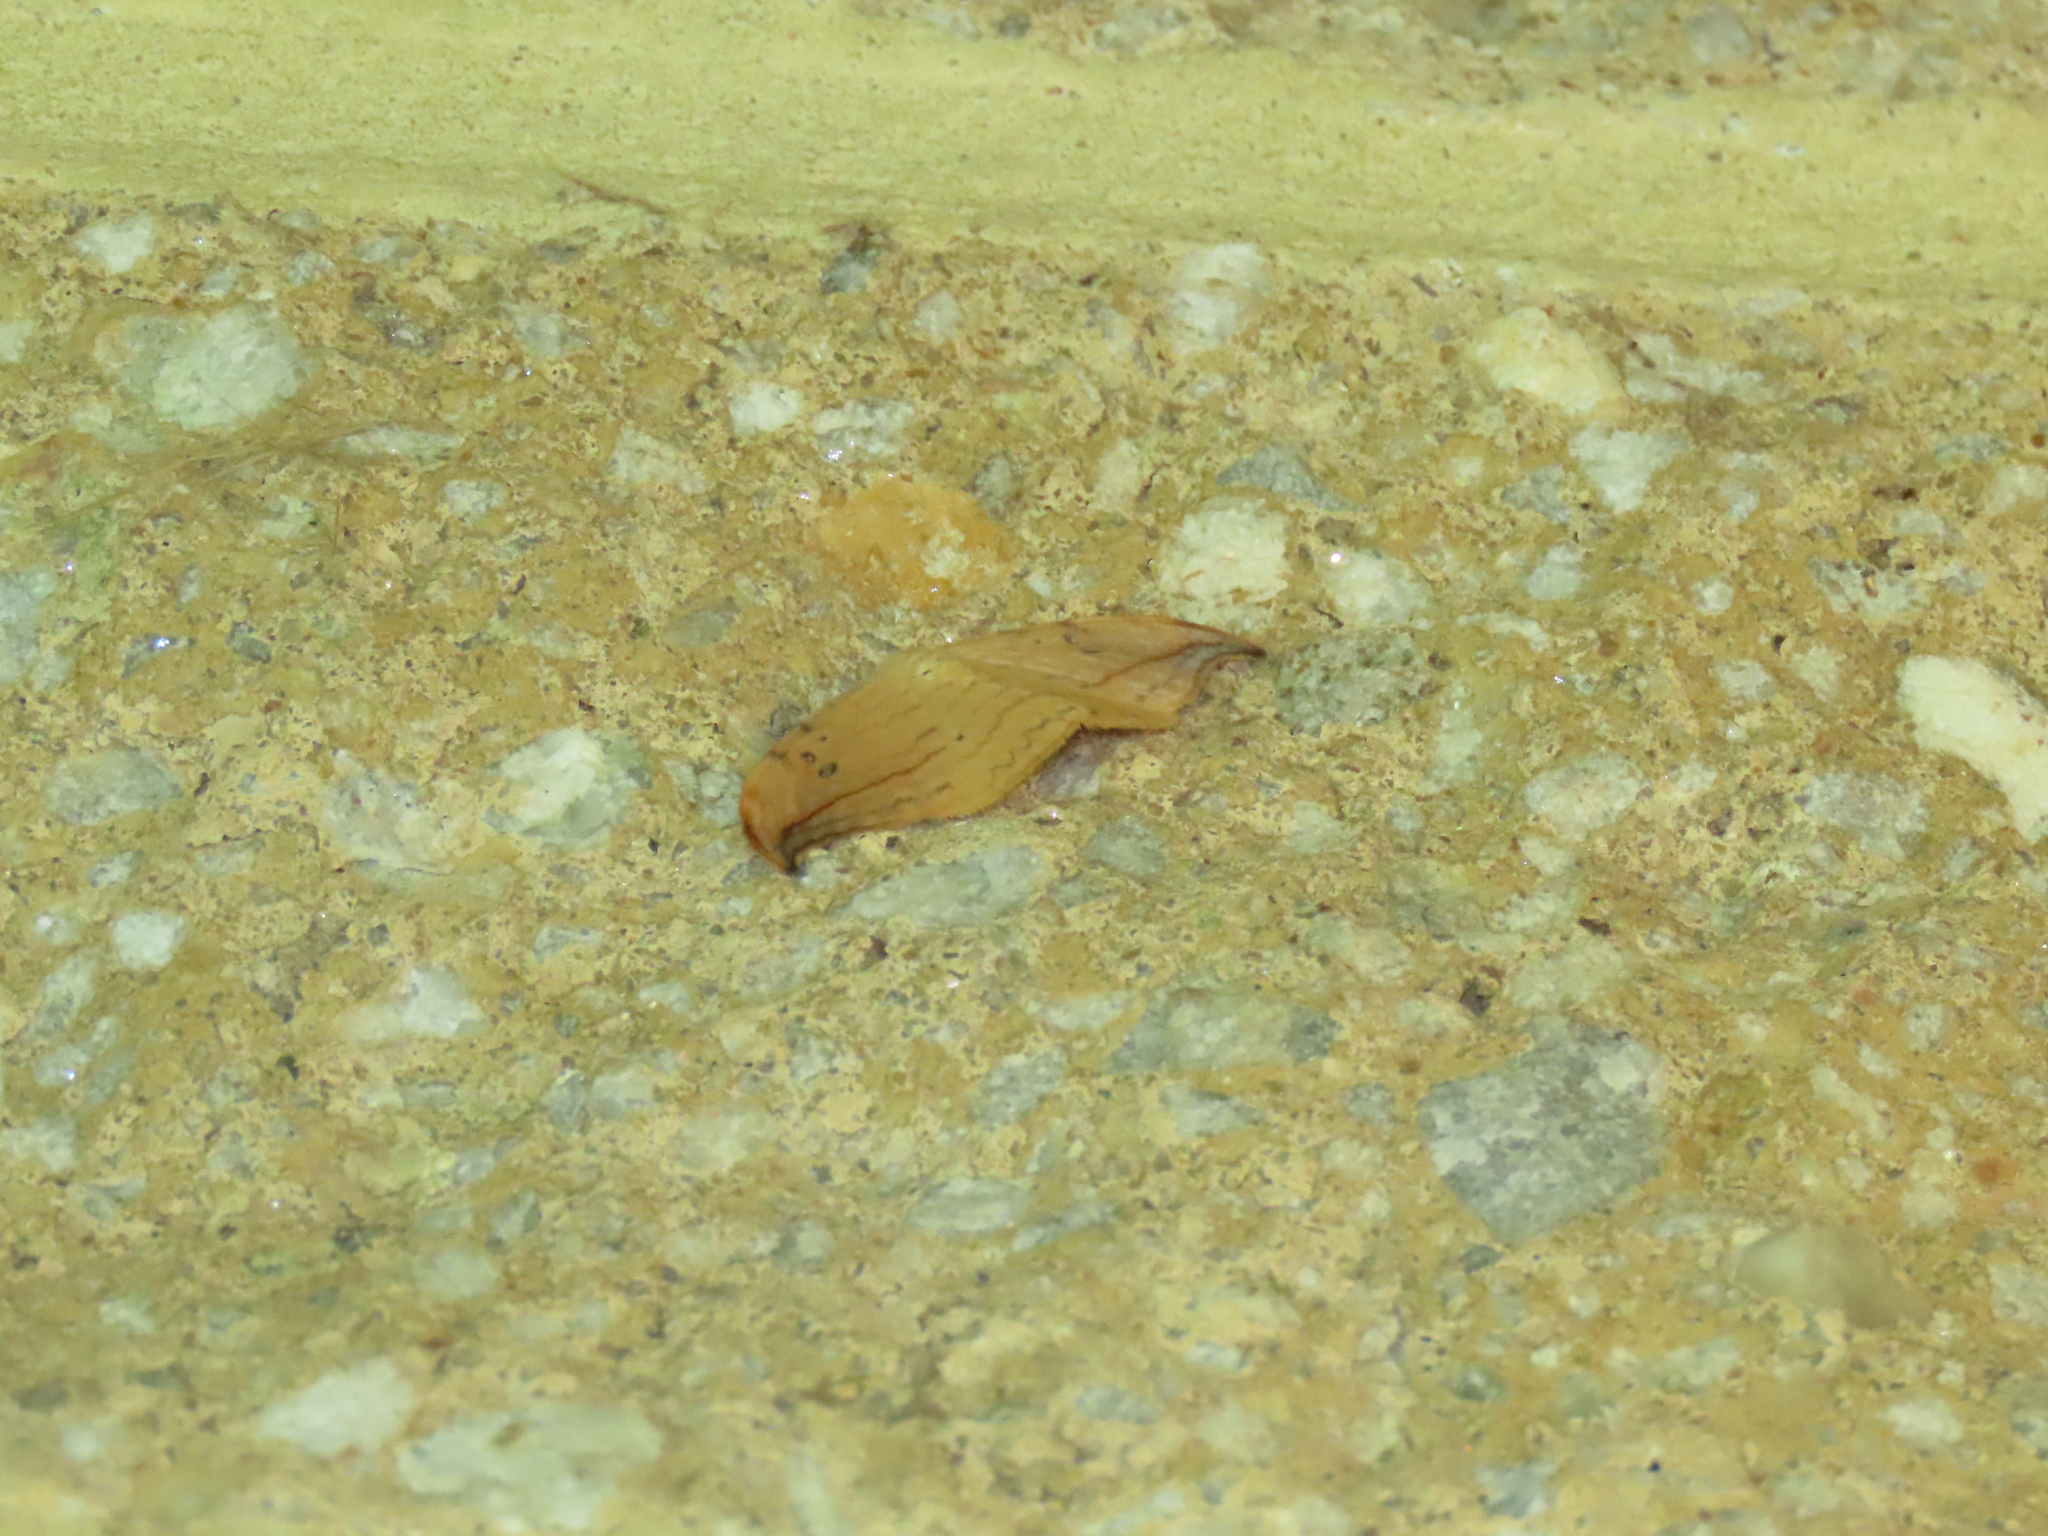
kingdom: Animalia
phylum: Arthropoda
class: Insecta
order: Lepidoptera
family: Drepanidae
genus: Drepana
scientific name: Drepana arcuata
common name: Arched hooktip moth
